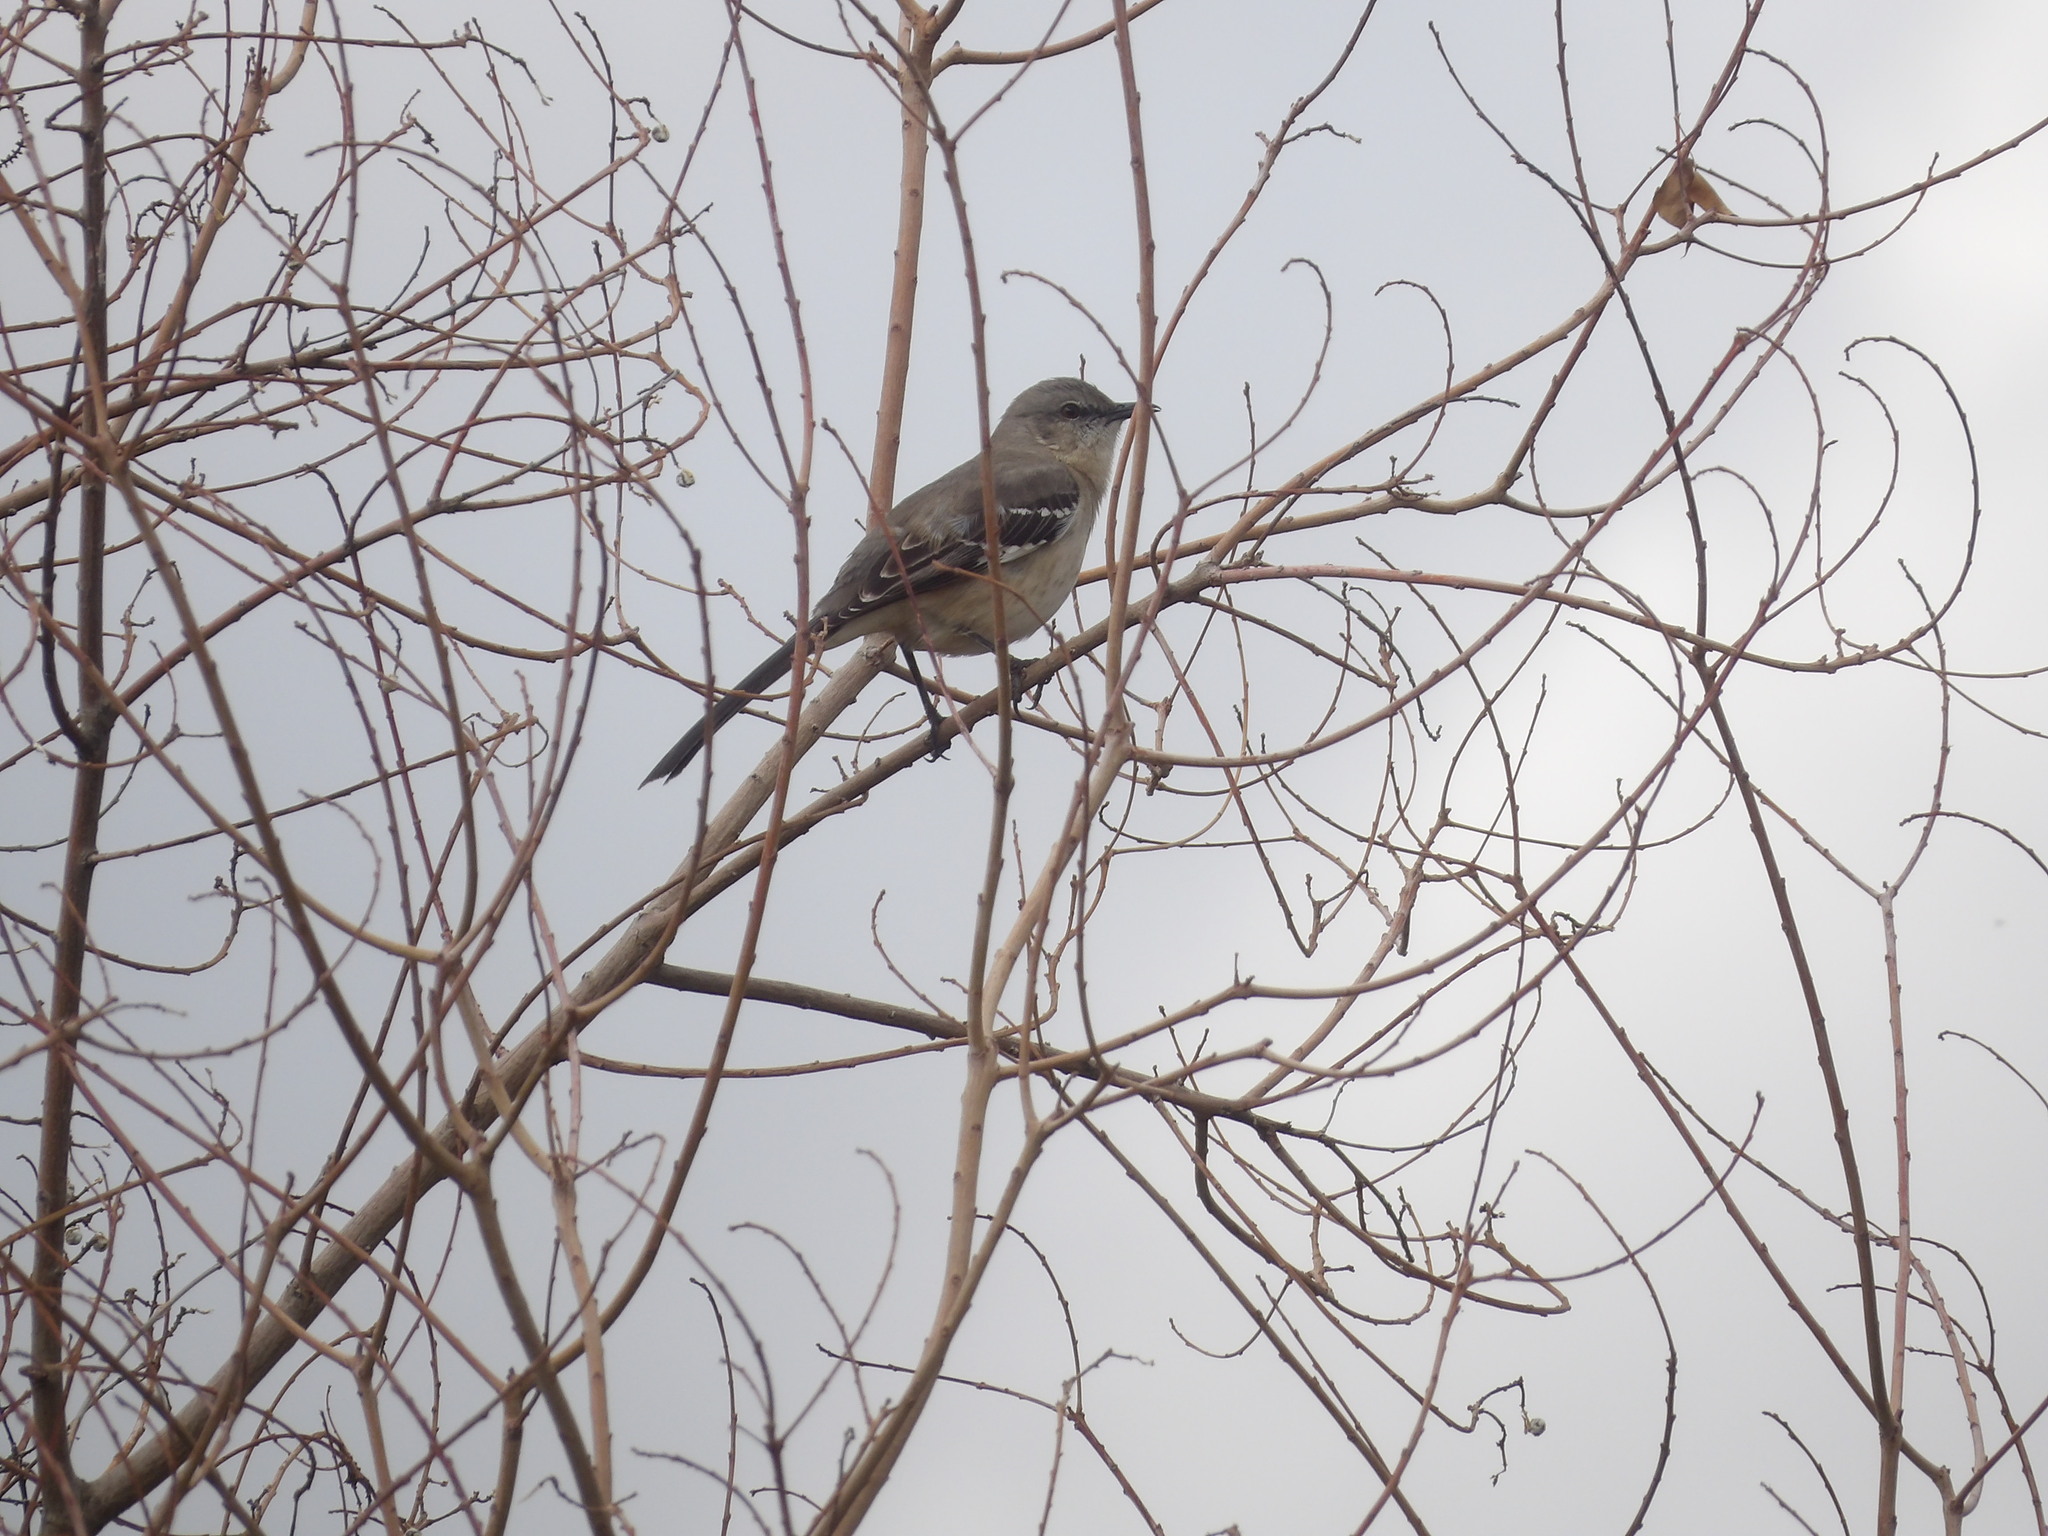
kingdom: Animalia
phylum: Chordata
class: Aves
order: Passeriformes
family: Mimidae
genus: Mimus
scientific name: Mimus polyglottos
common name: Northern mockingbird
